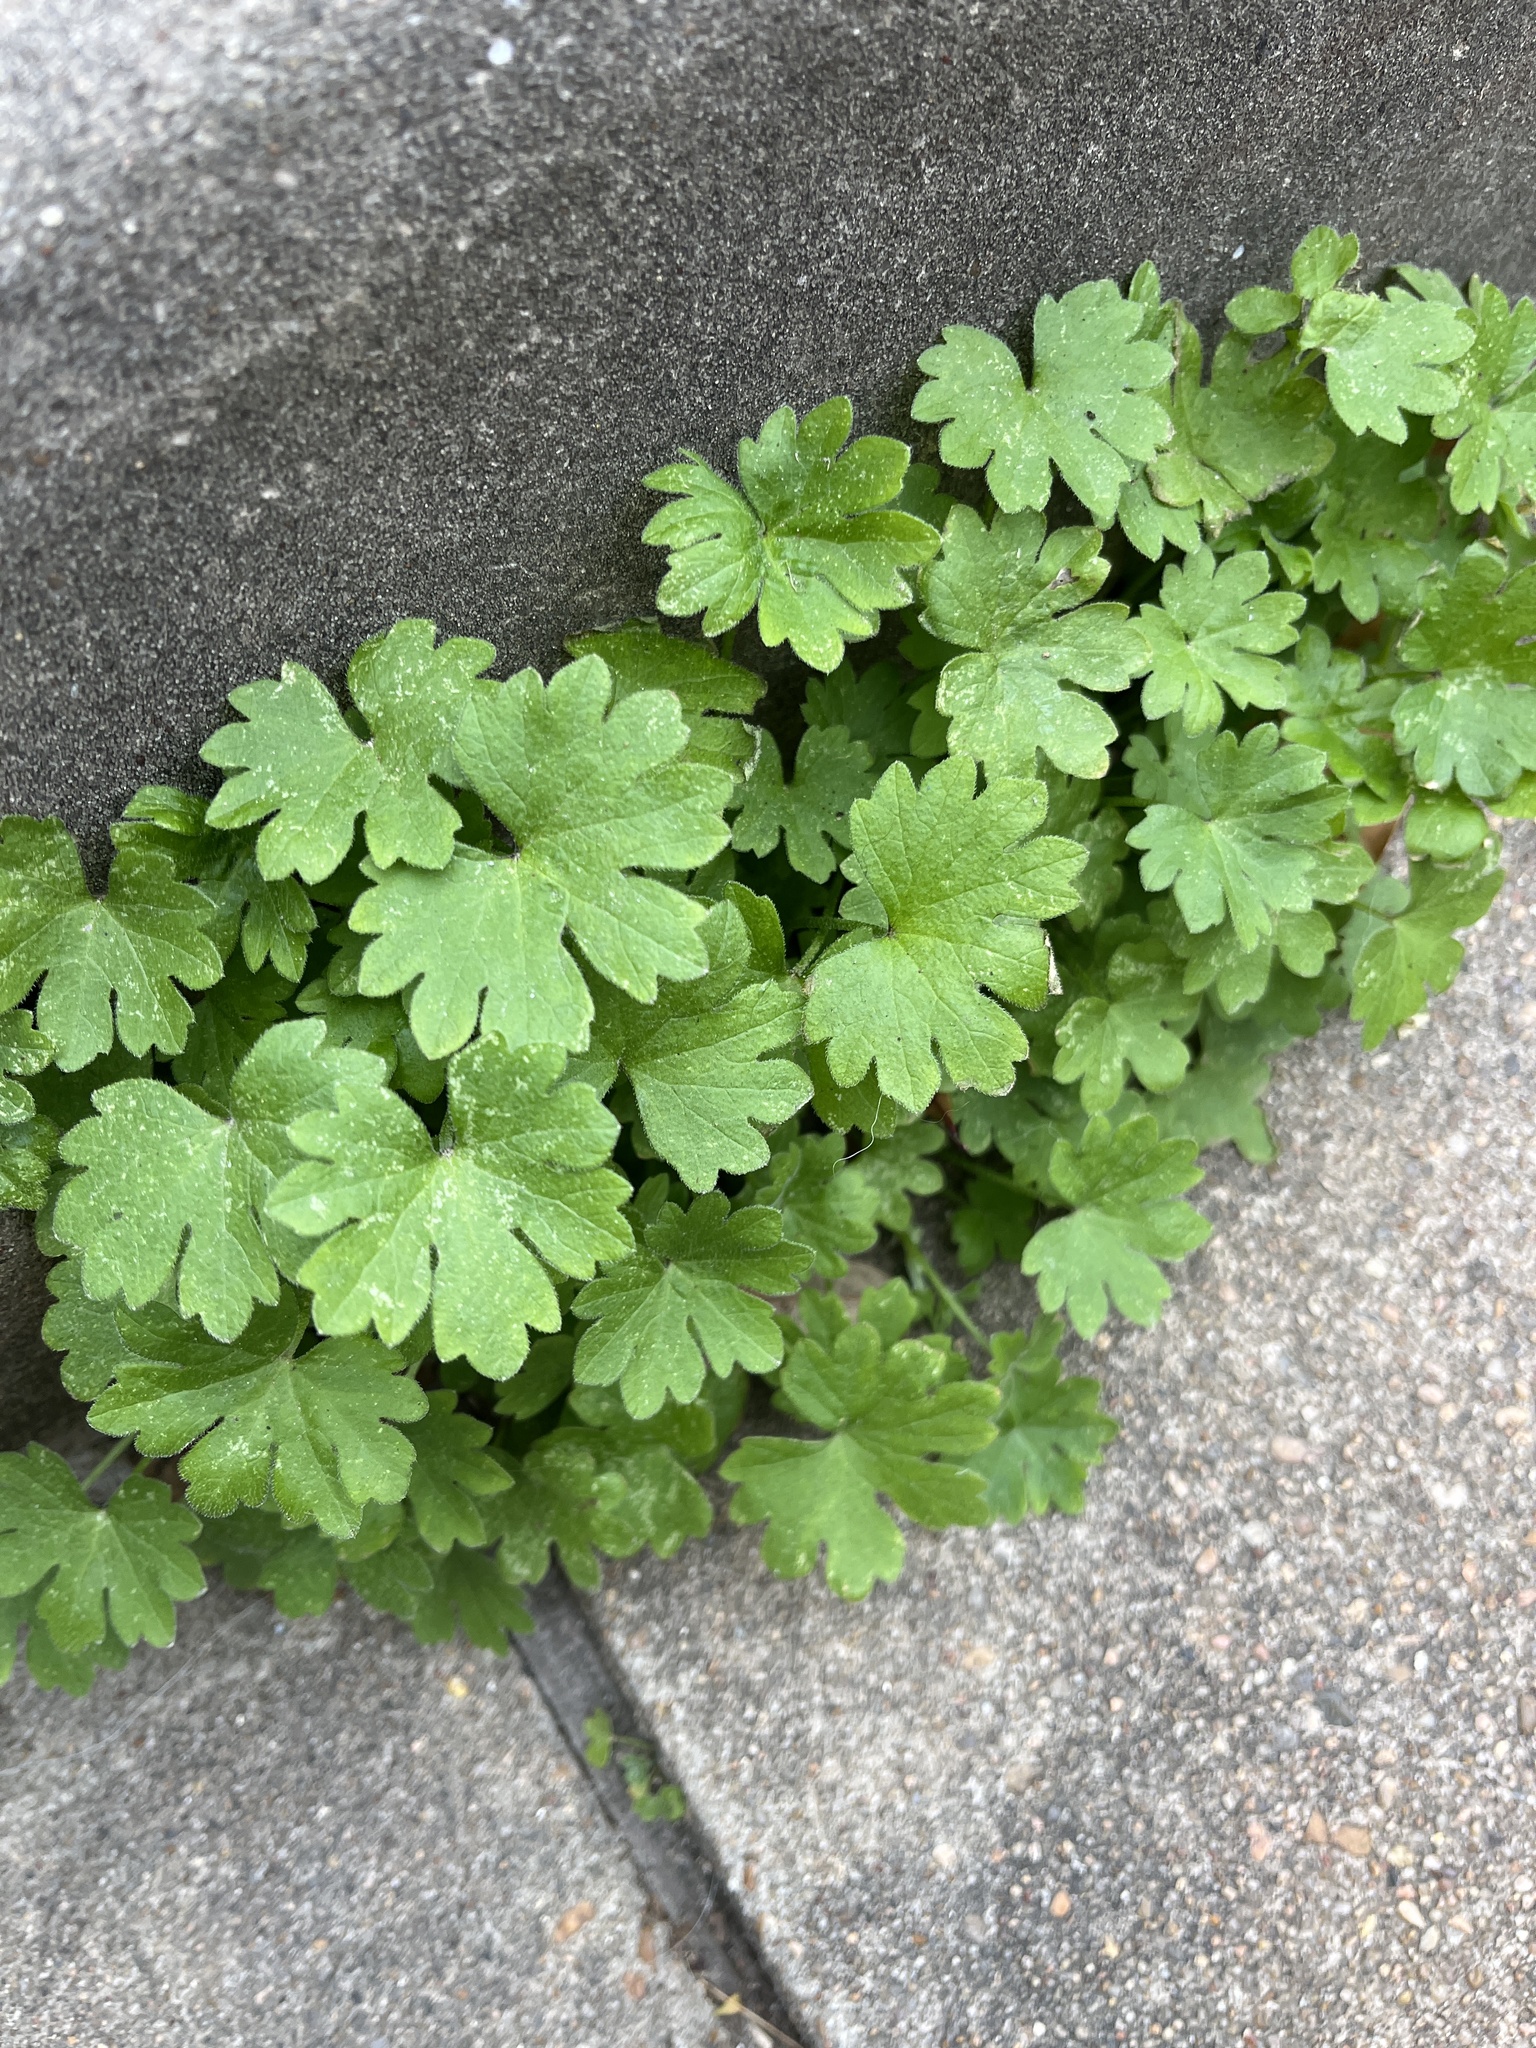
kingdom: Plantae
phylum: Tracheophyta
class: Magnoliopsida
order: Apiales
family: Apiaceae
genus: Bowlesia
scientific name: Bowlesia incana
